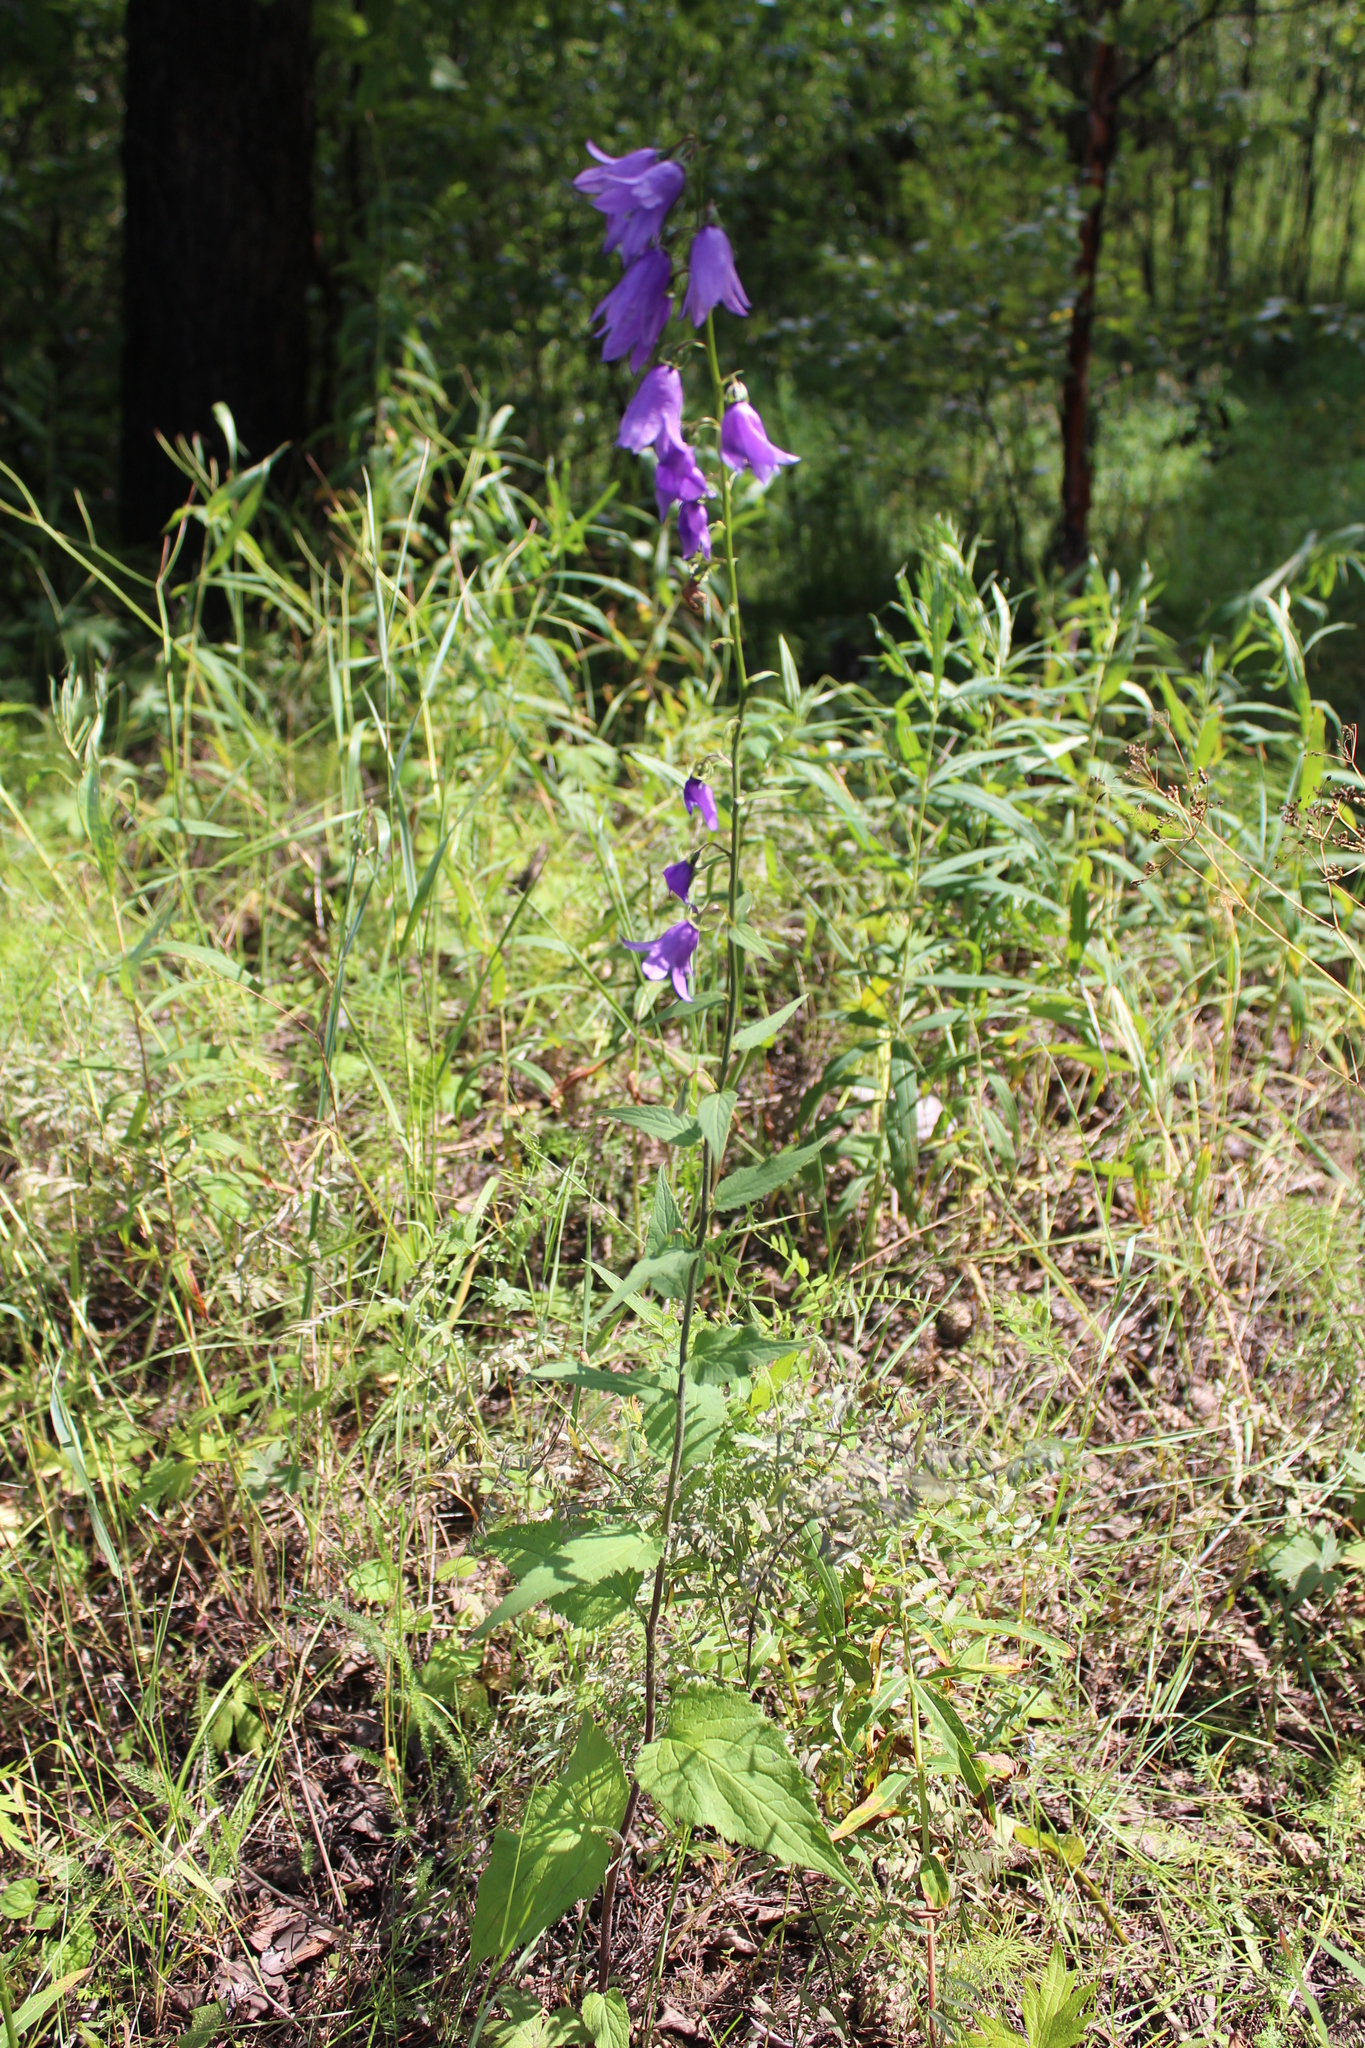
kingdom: Plantae
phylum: Tracheophyta
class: Magnoliopsida
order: Asterales
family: Campanulaceae
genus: Campanula
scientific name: Campanula rapunculoides
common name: Creeping bellflower
